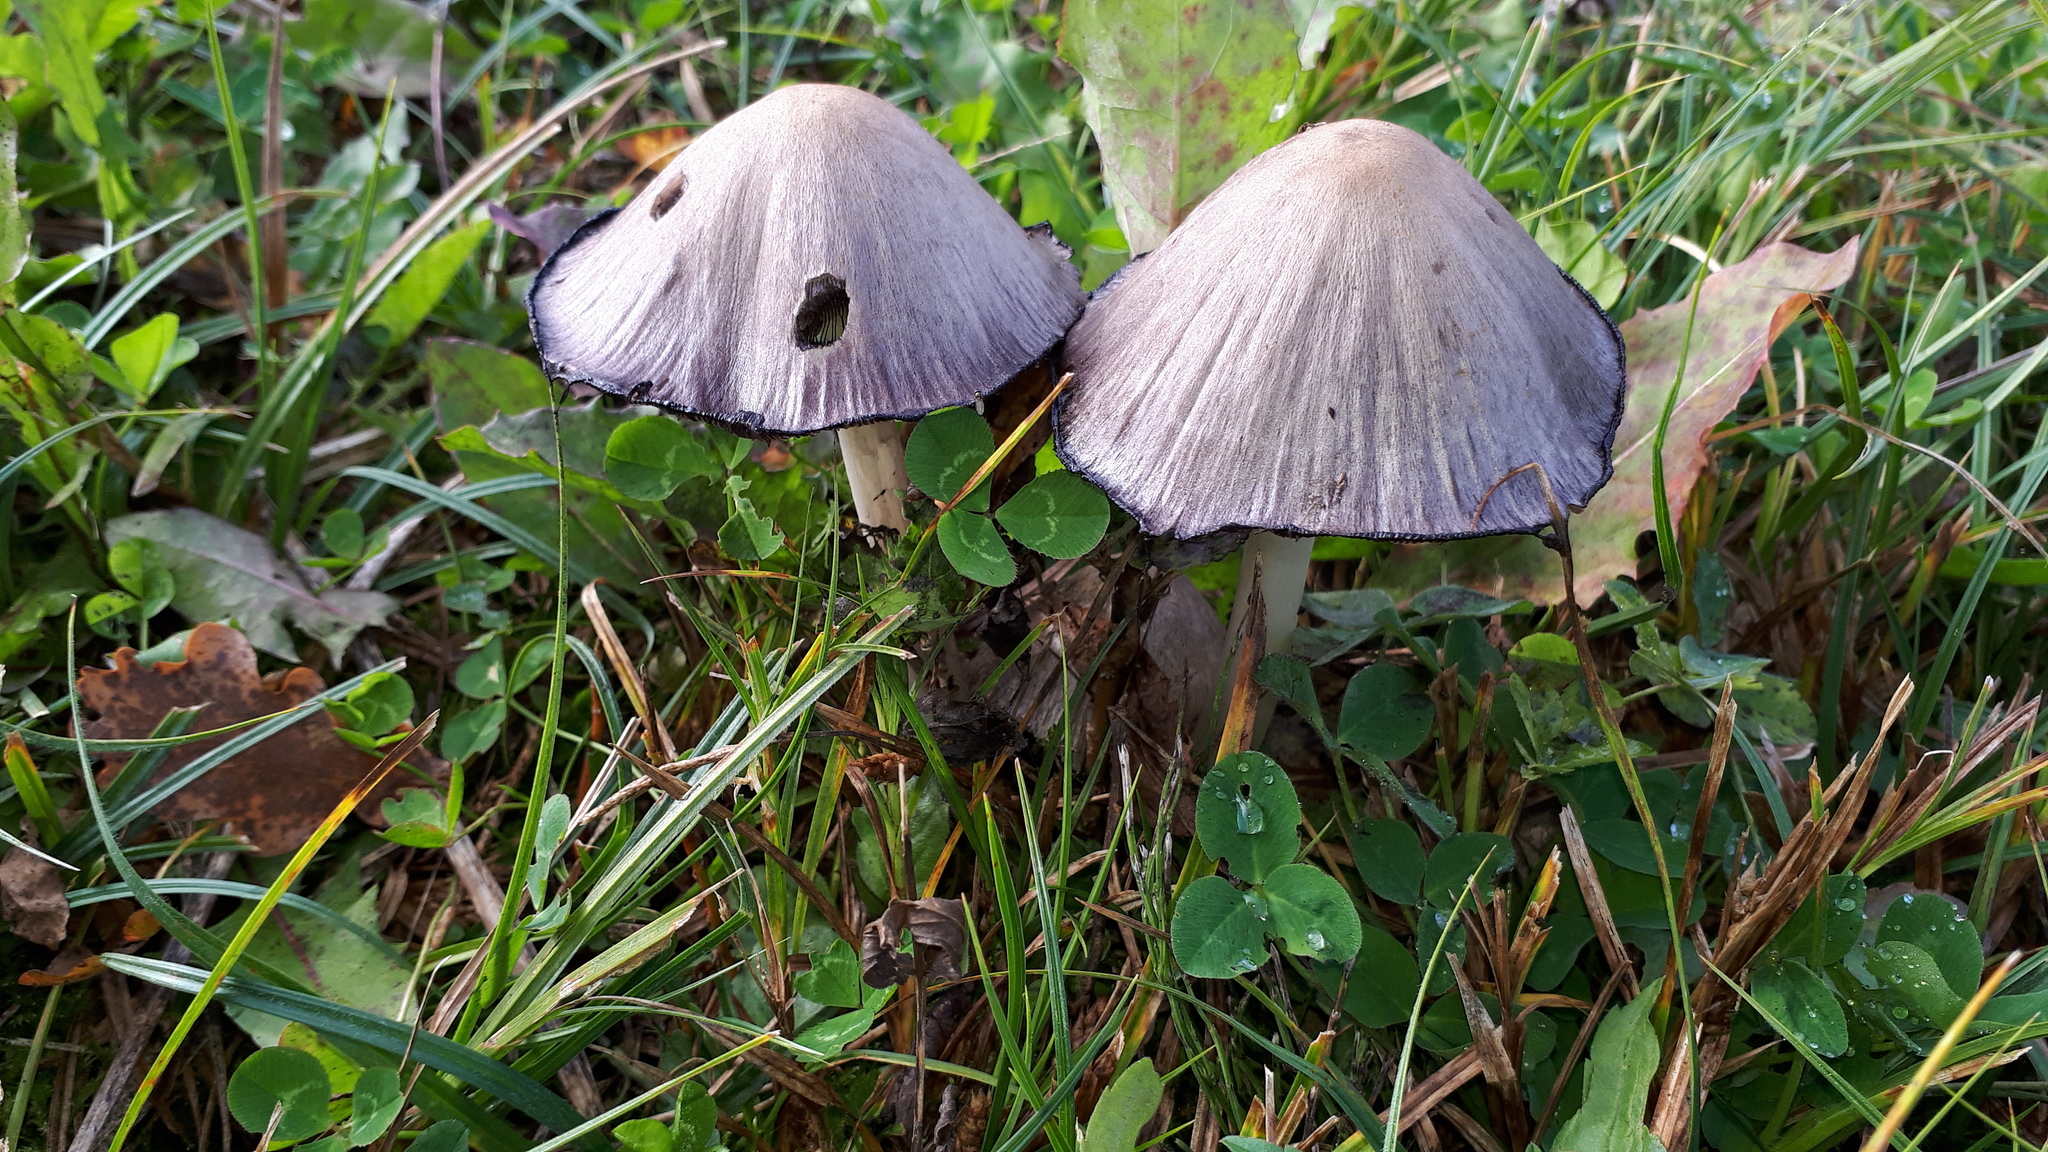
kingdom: Fungi
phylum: Basidiomycota
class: Agaricomycetes
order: Agaricales
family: Psathyrellaceae
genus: Coprinopsis
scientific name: Coprinopsis atramentaria
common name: Common ink-cap
